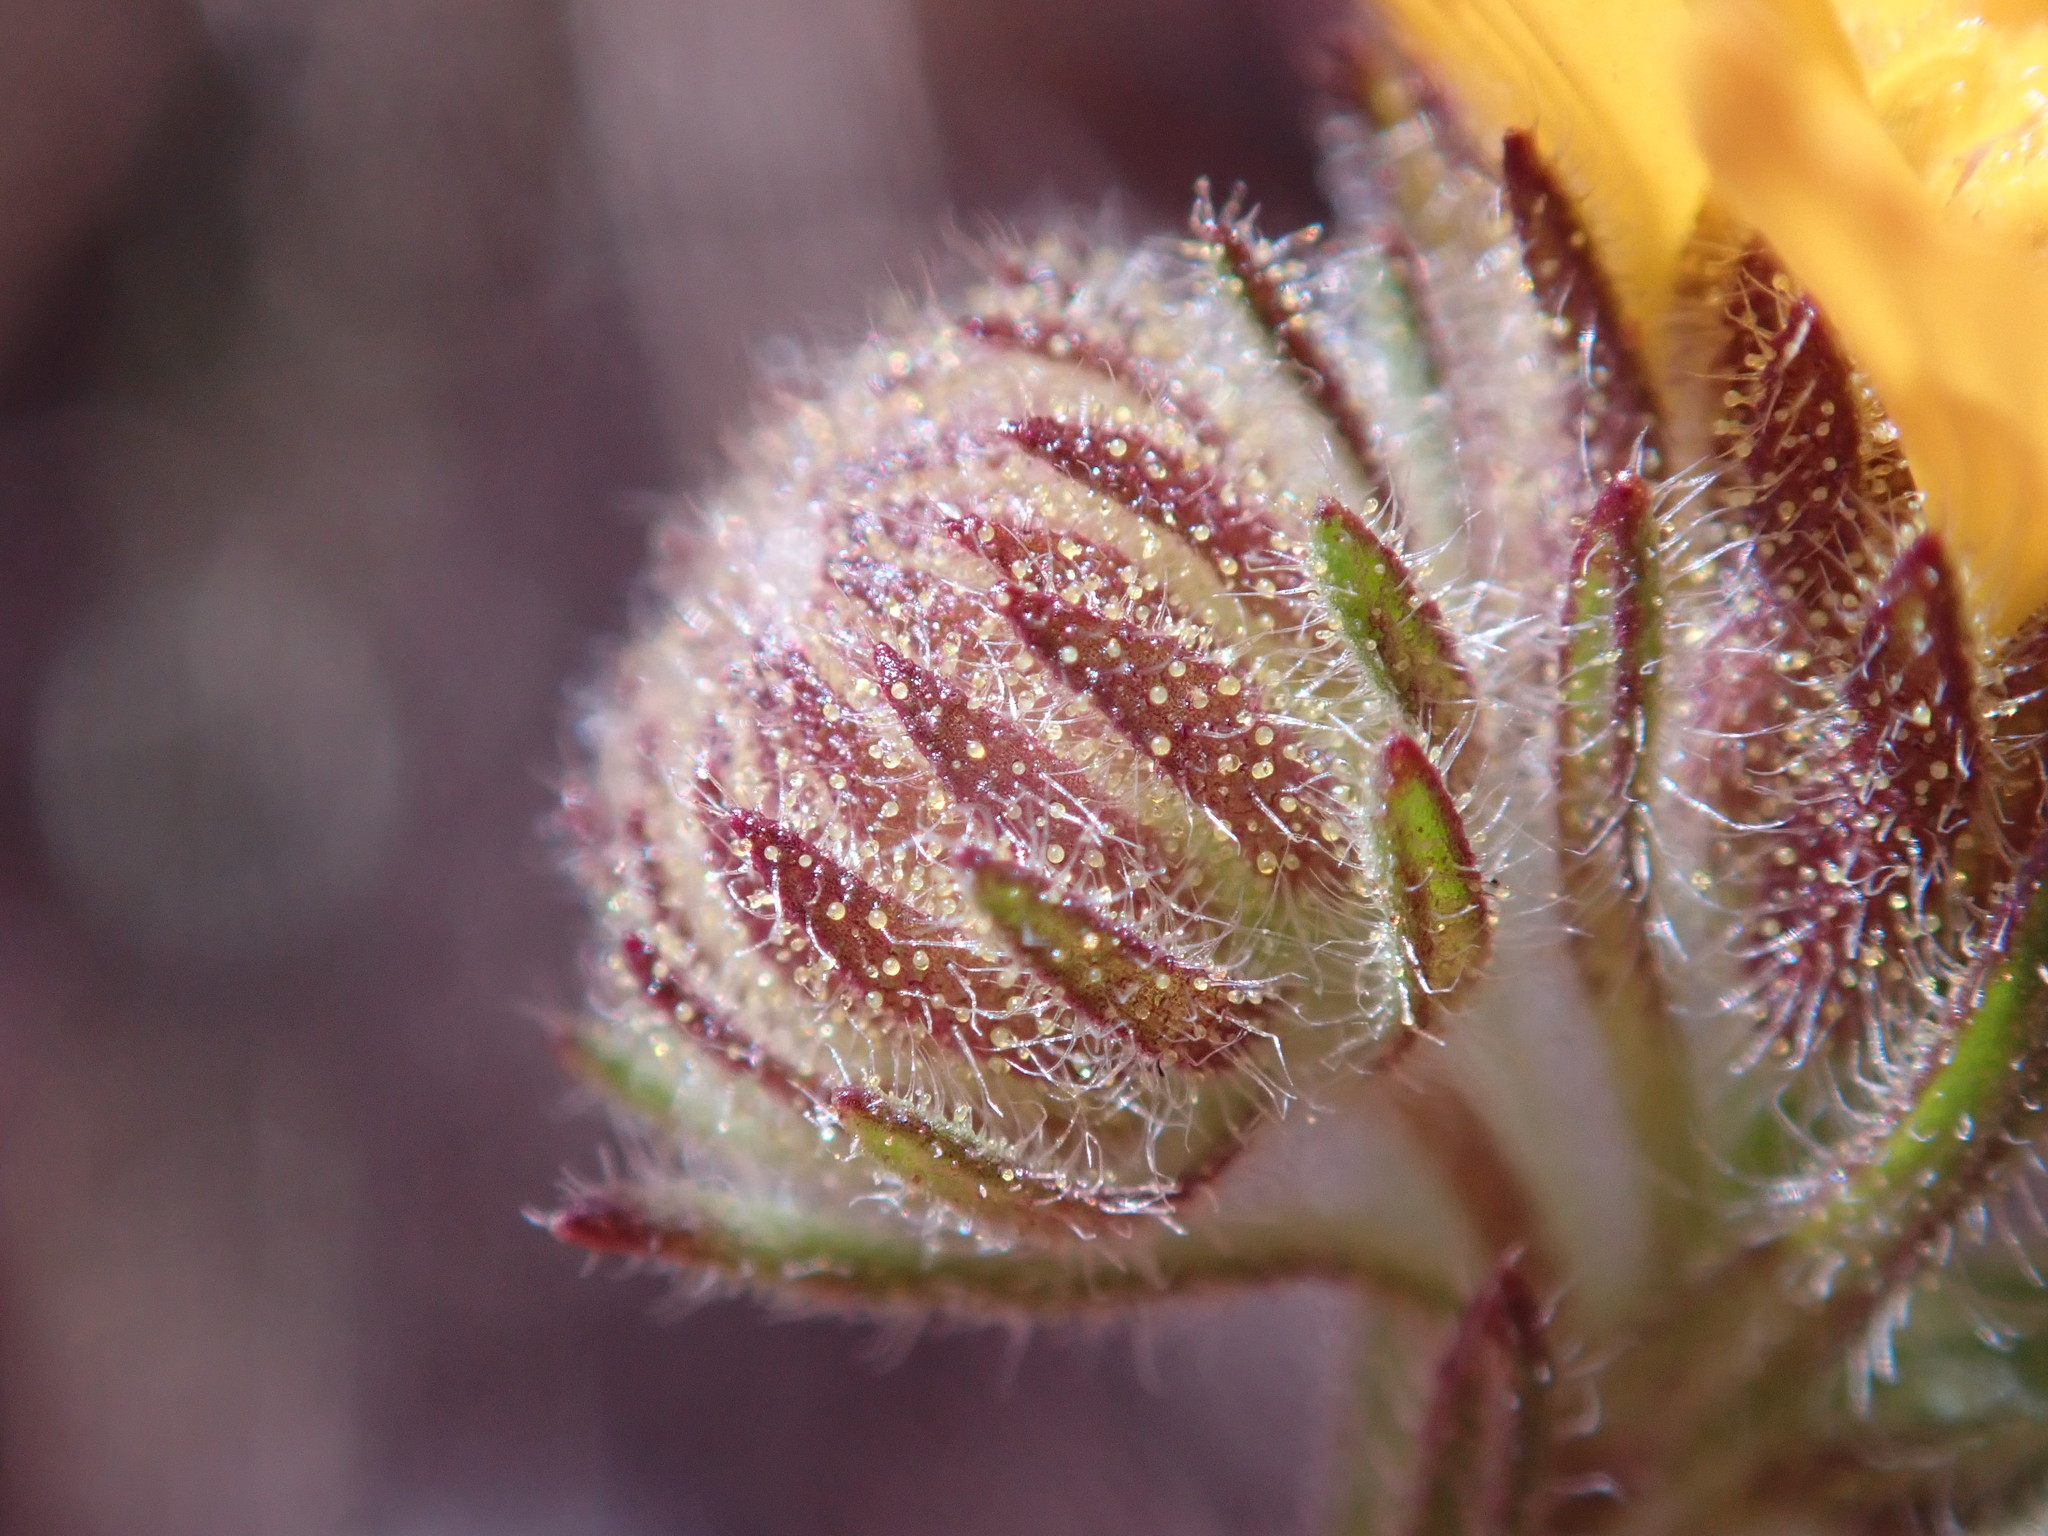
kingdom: Plantae
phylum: Tracheophyta
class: Magnoliopsida
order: Asterales
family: Asteraceae
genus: Deinandra
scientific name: Deinandra corymbosa
